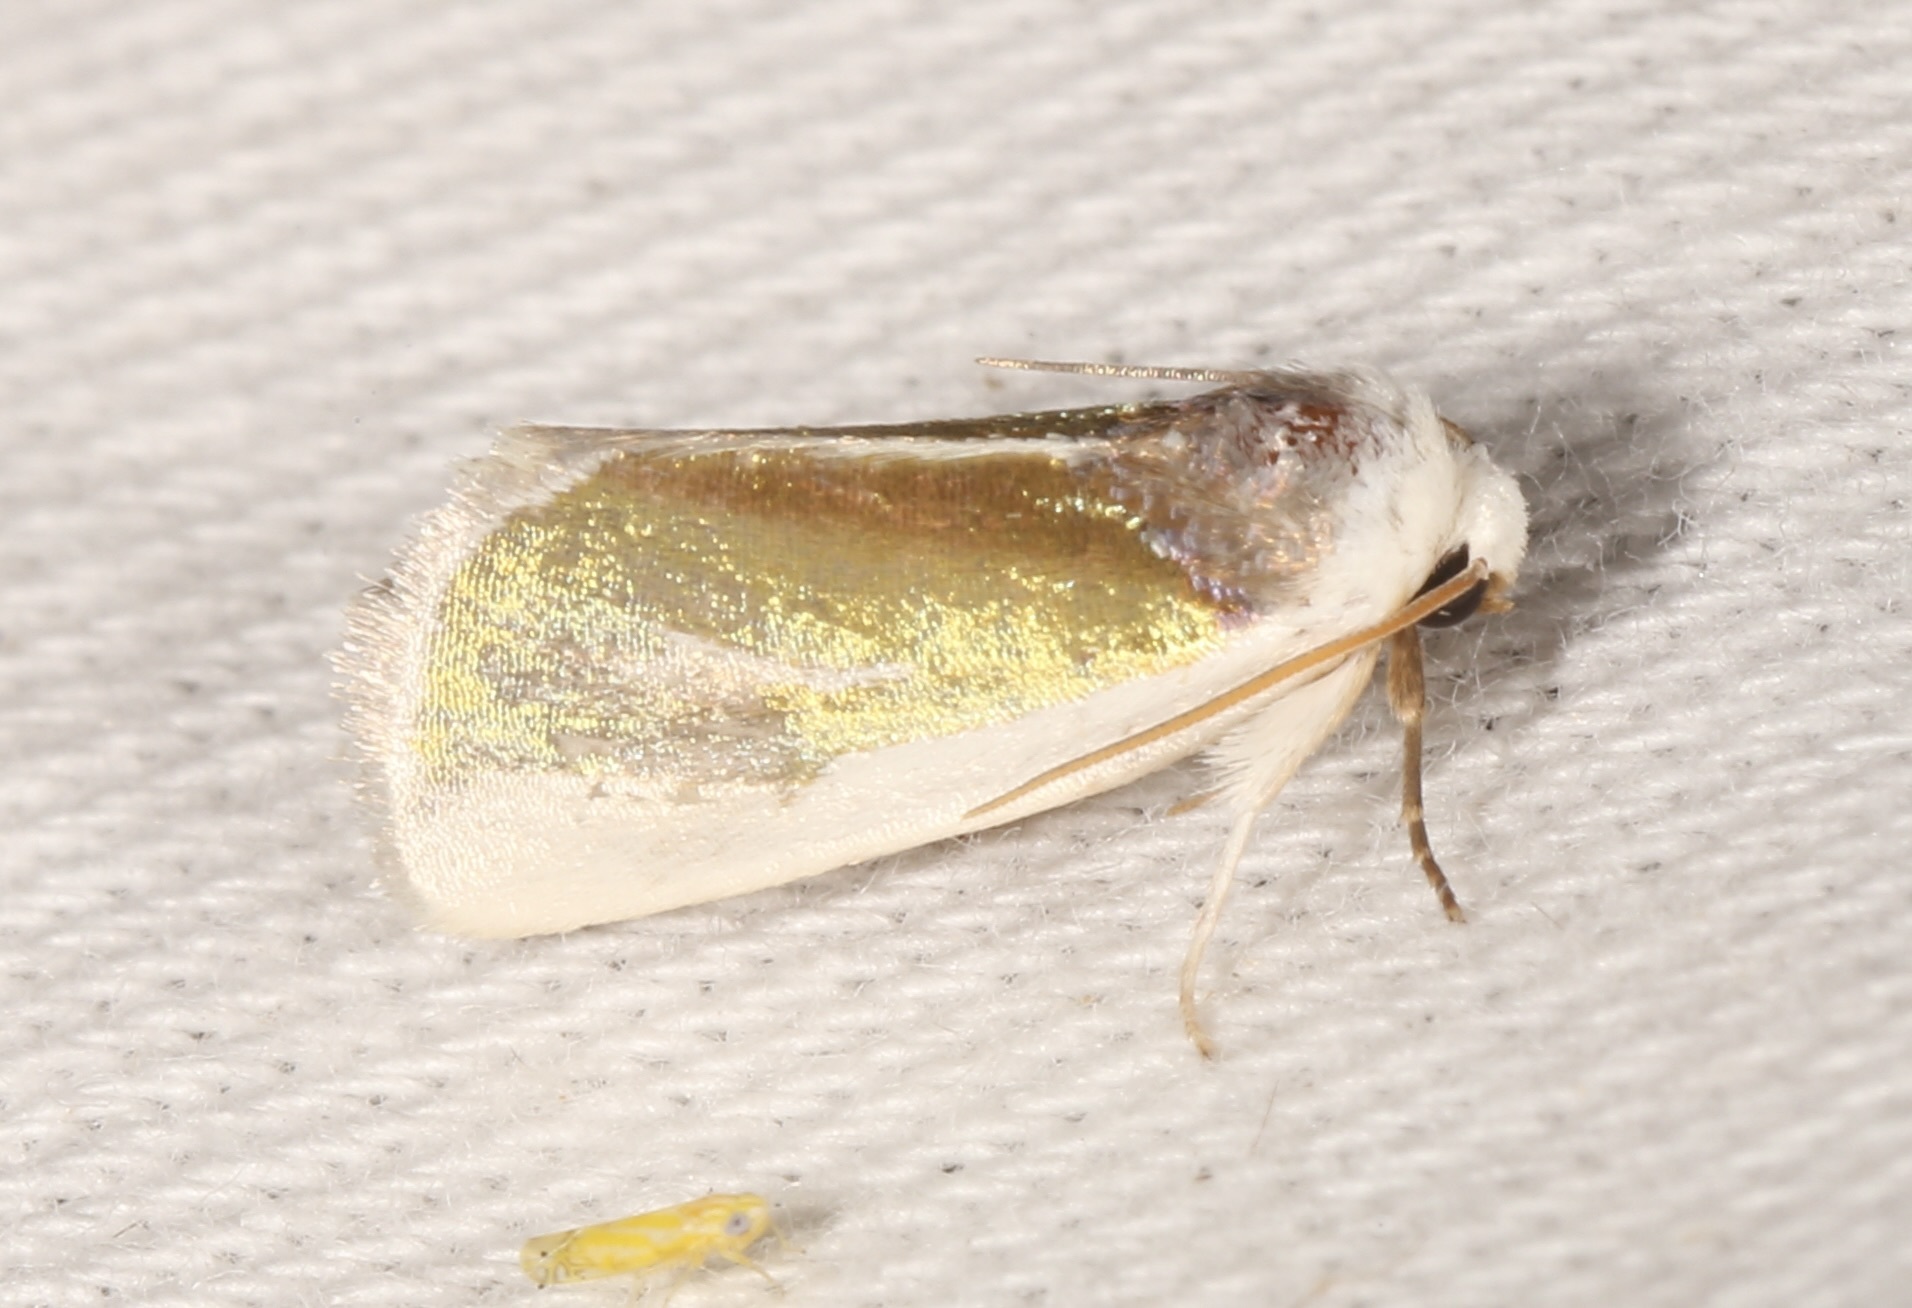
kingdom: Animalia
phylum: Arthropoda
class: Insecta
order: Lepidoptera
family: Noctuidae
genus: Neumoegenia
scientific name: Neumoegenia poetica
